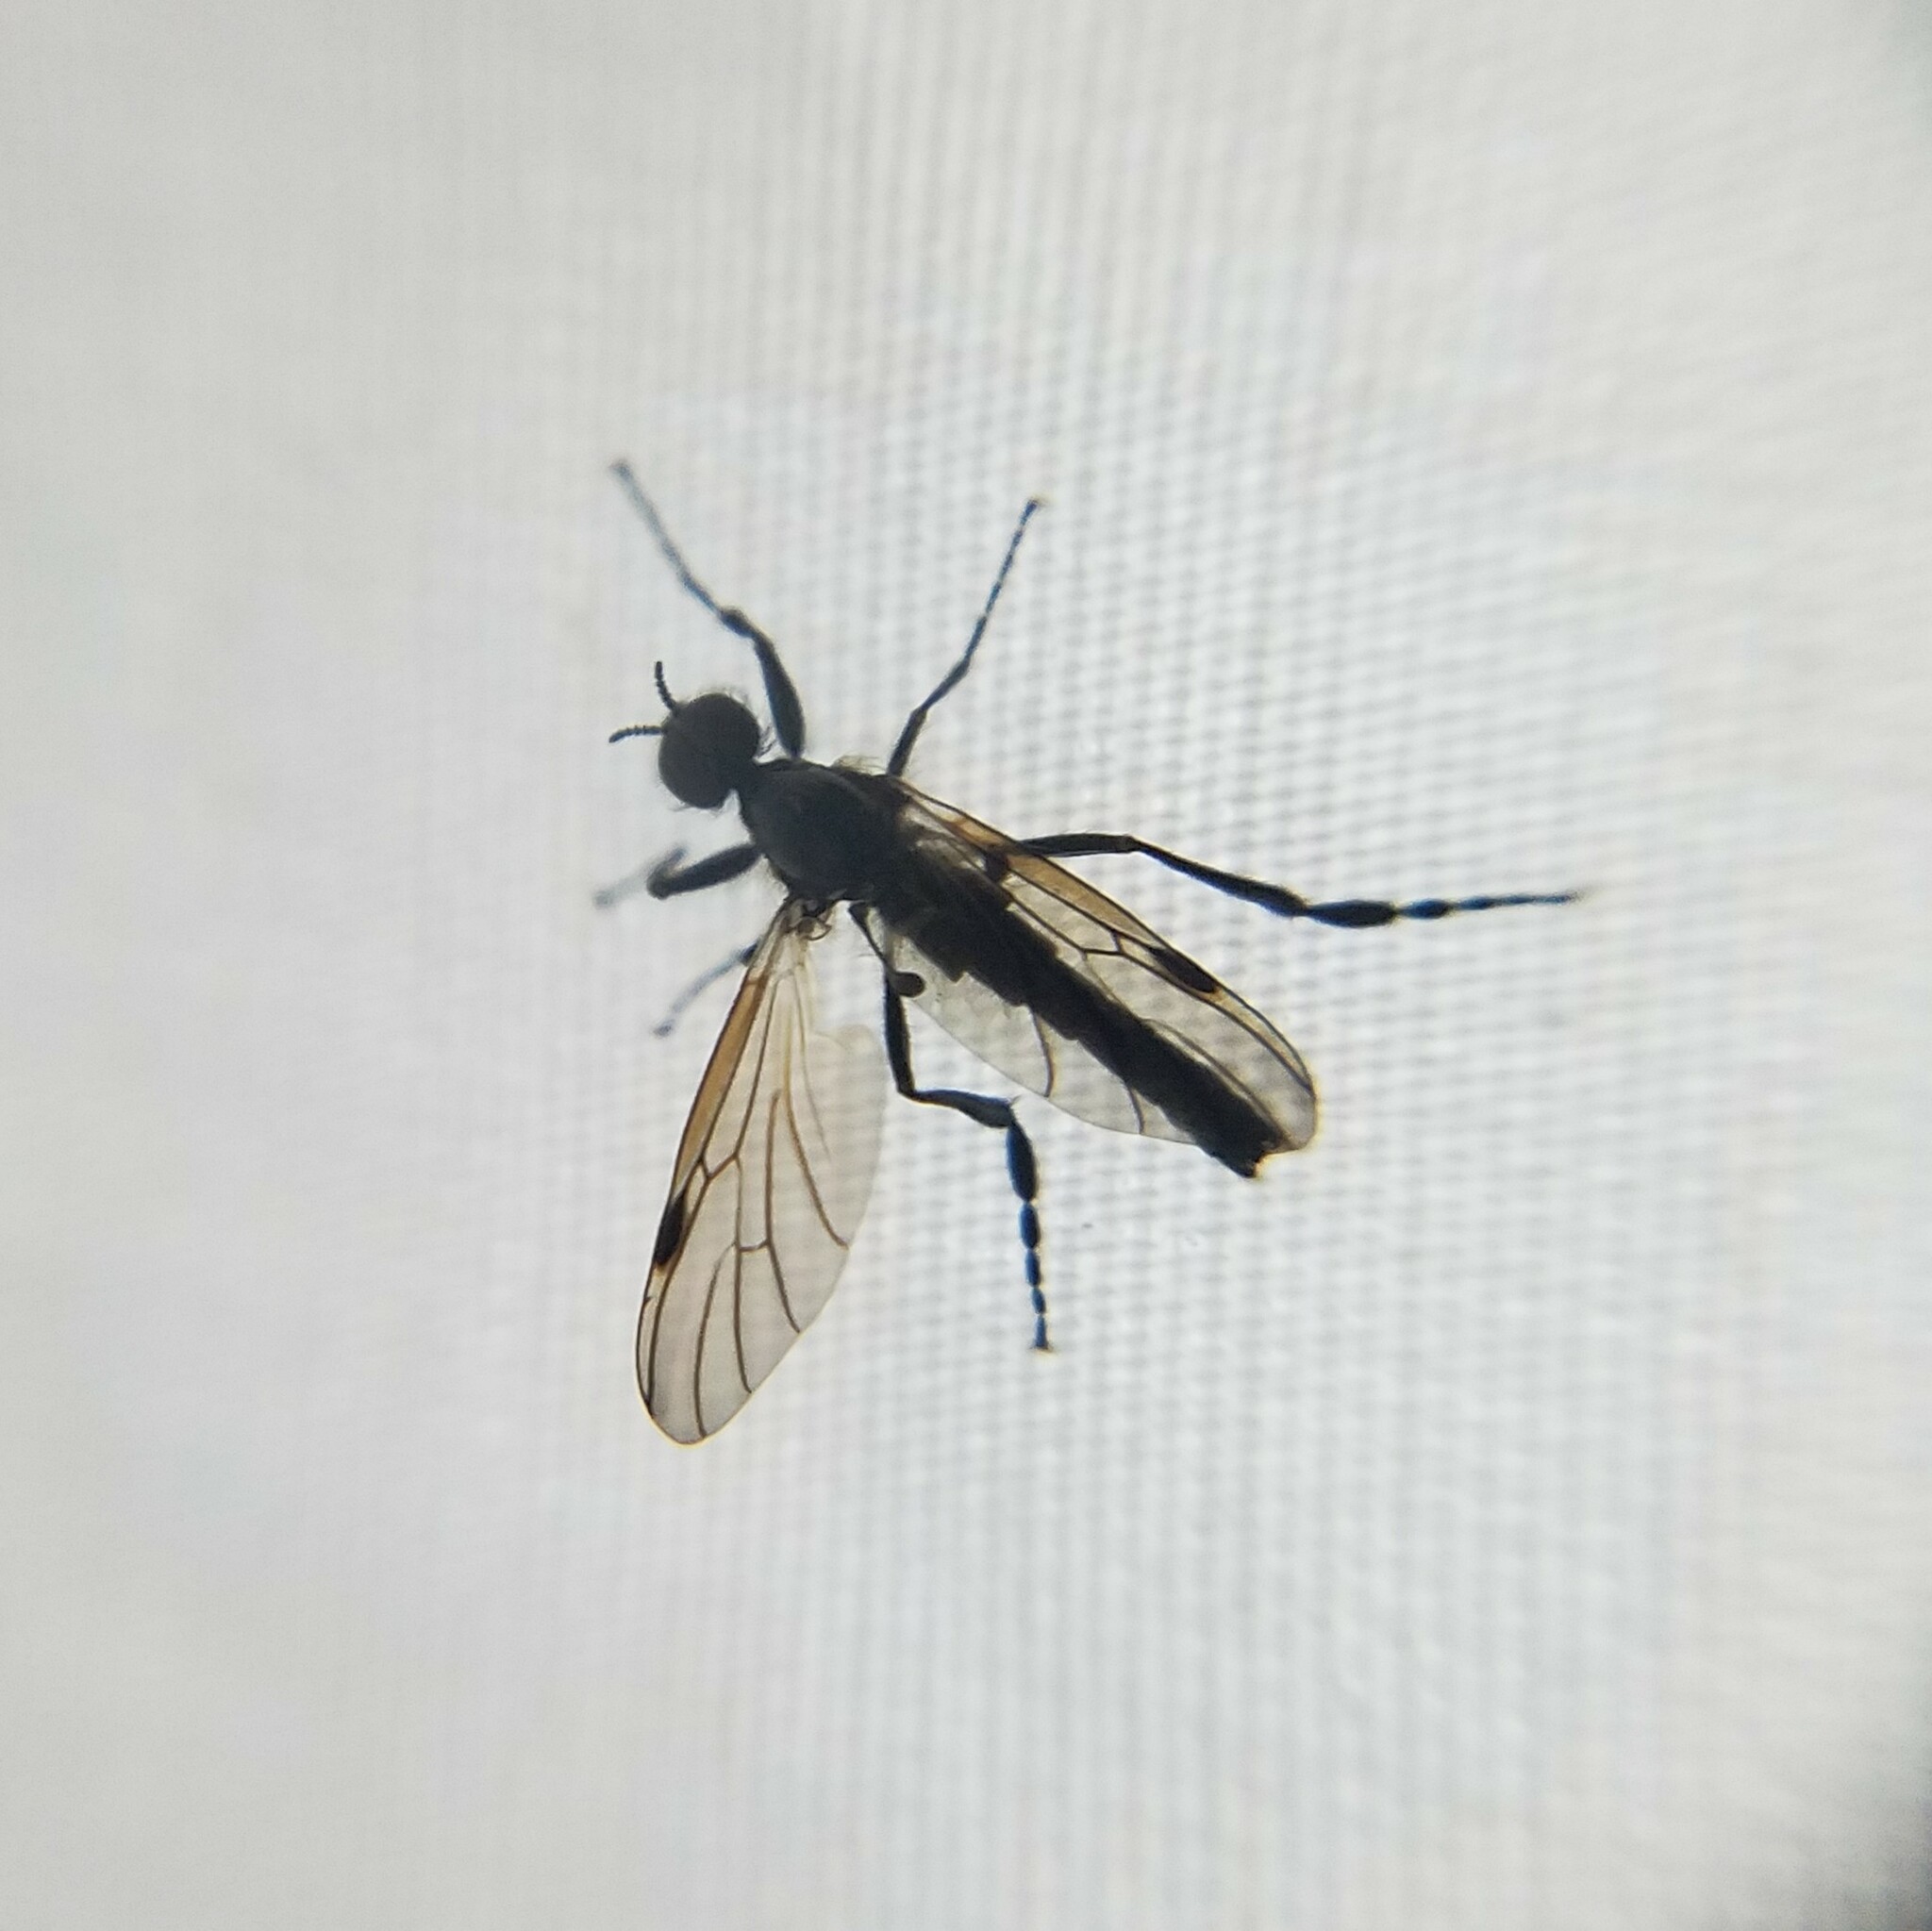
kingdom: Animalia
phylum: Arthropoda
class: Insecta
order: Diptera
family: Bibionidae
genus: Bibio
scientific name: Bibio longipes
